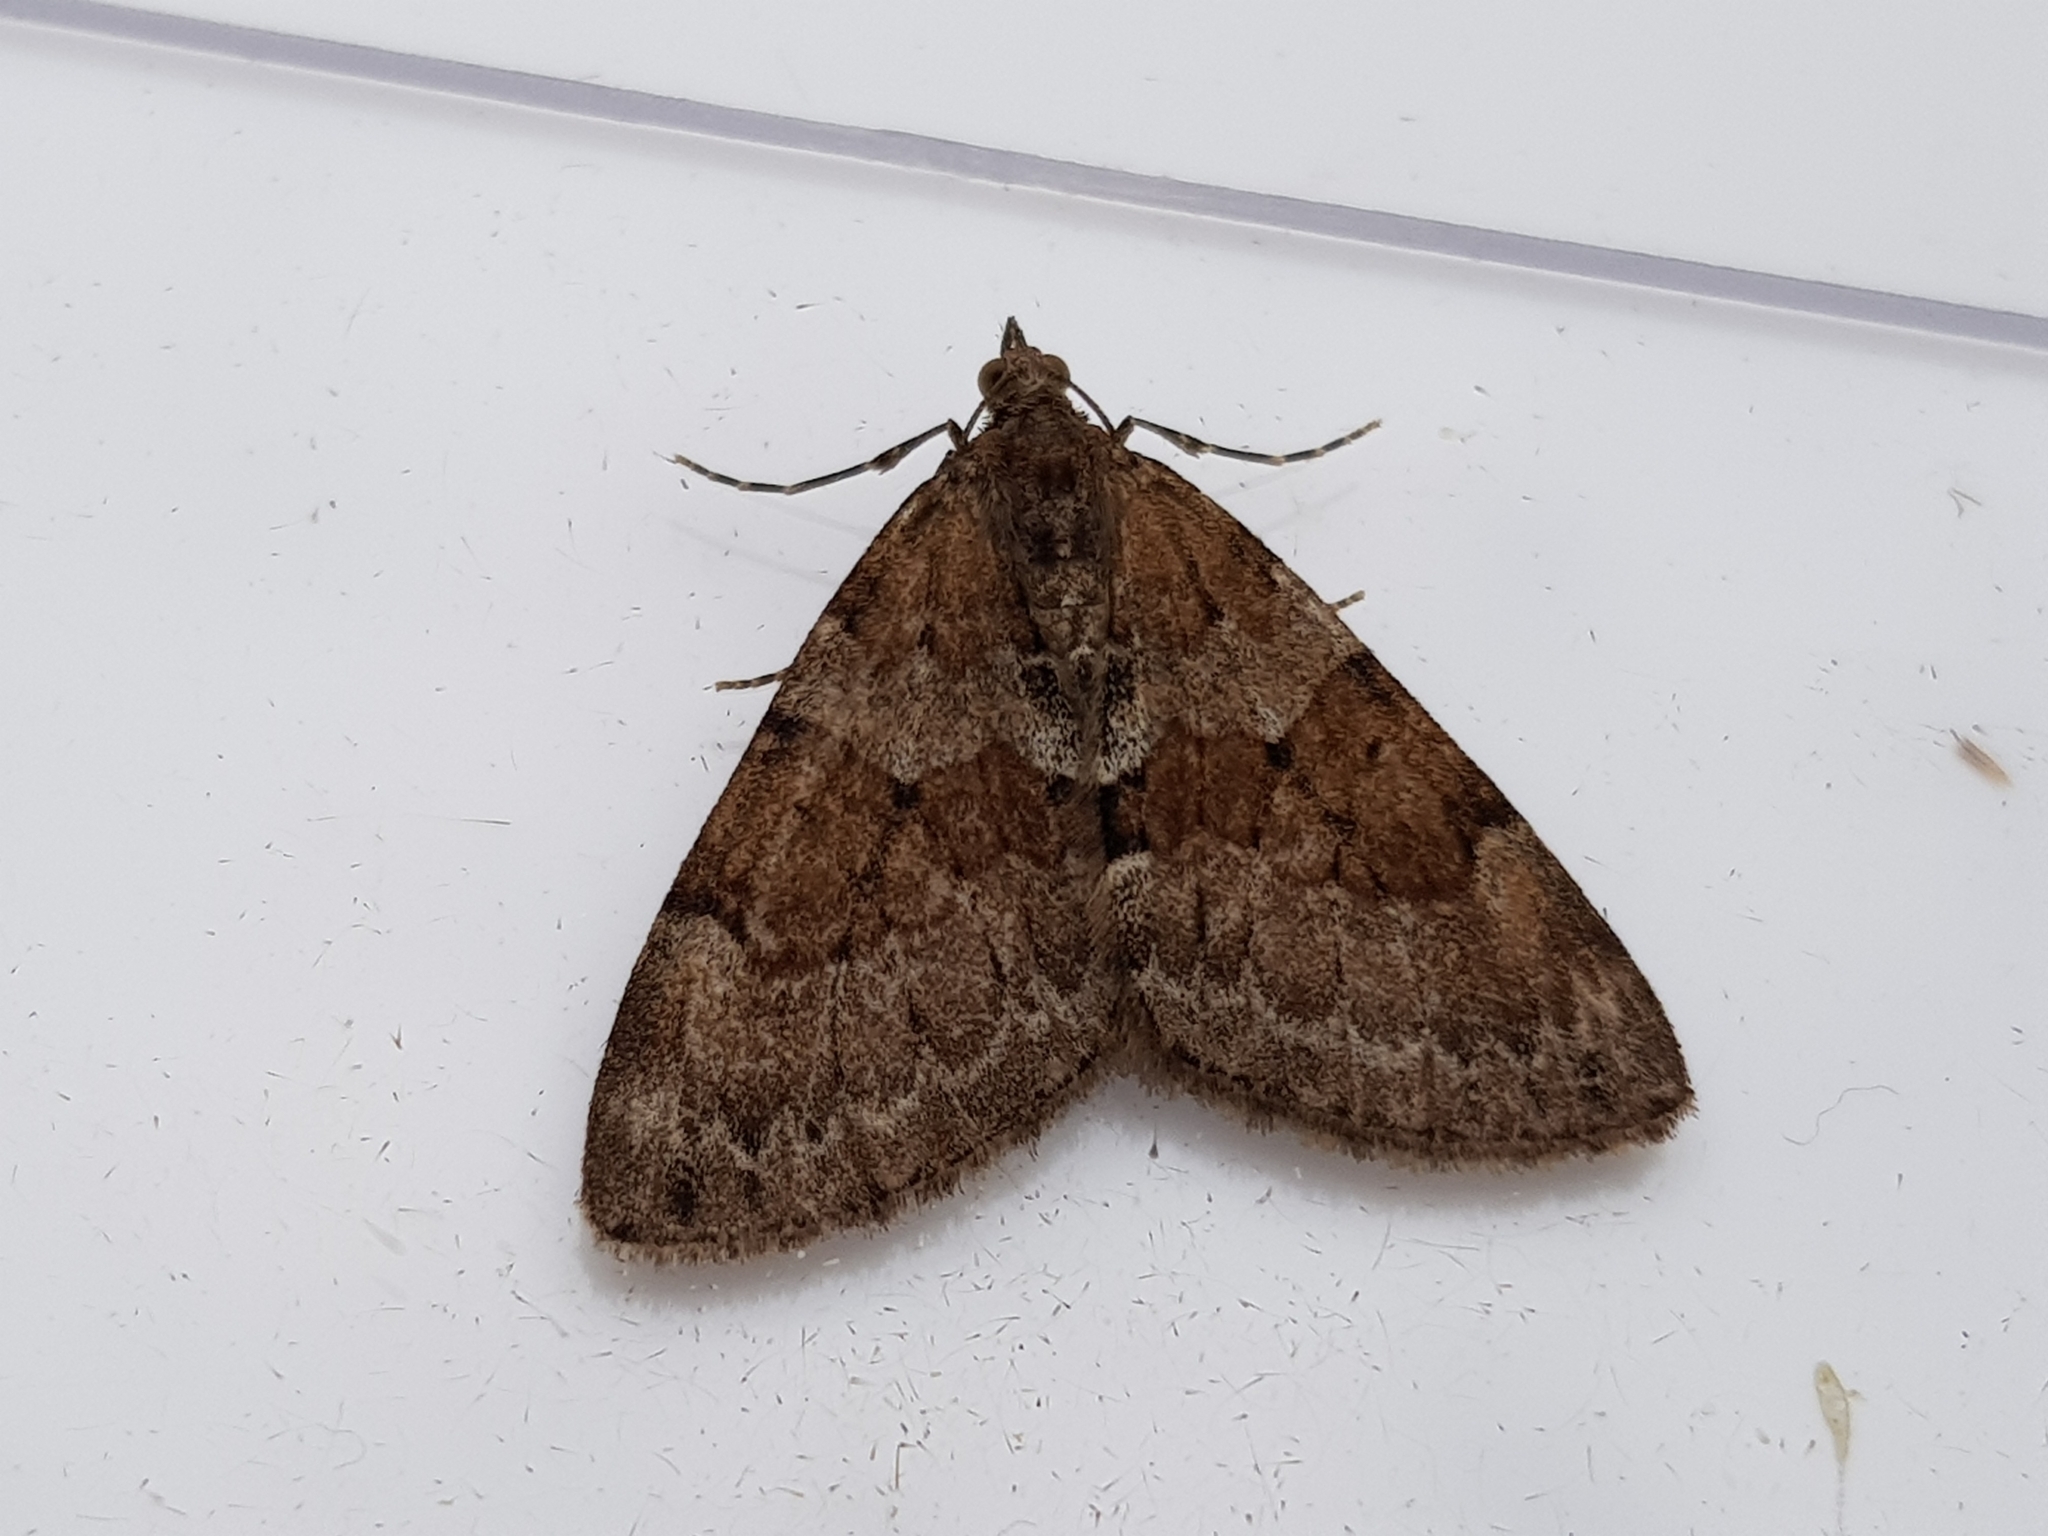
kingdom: Animalia
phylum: Arthropoda
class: Insecta
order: Lepidoptera
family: Geometridae
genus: Thera
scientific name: Thera britannica
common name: Spruce carpet
